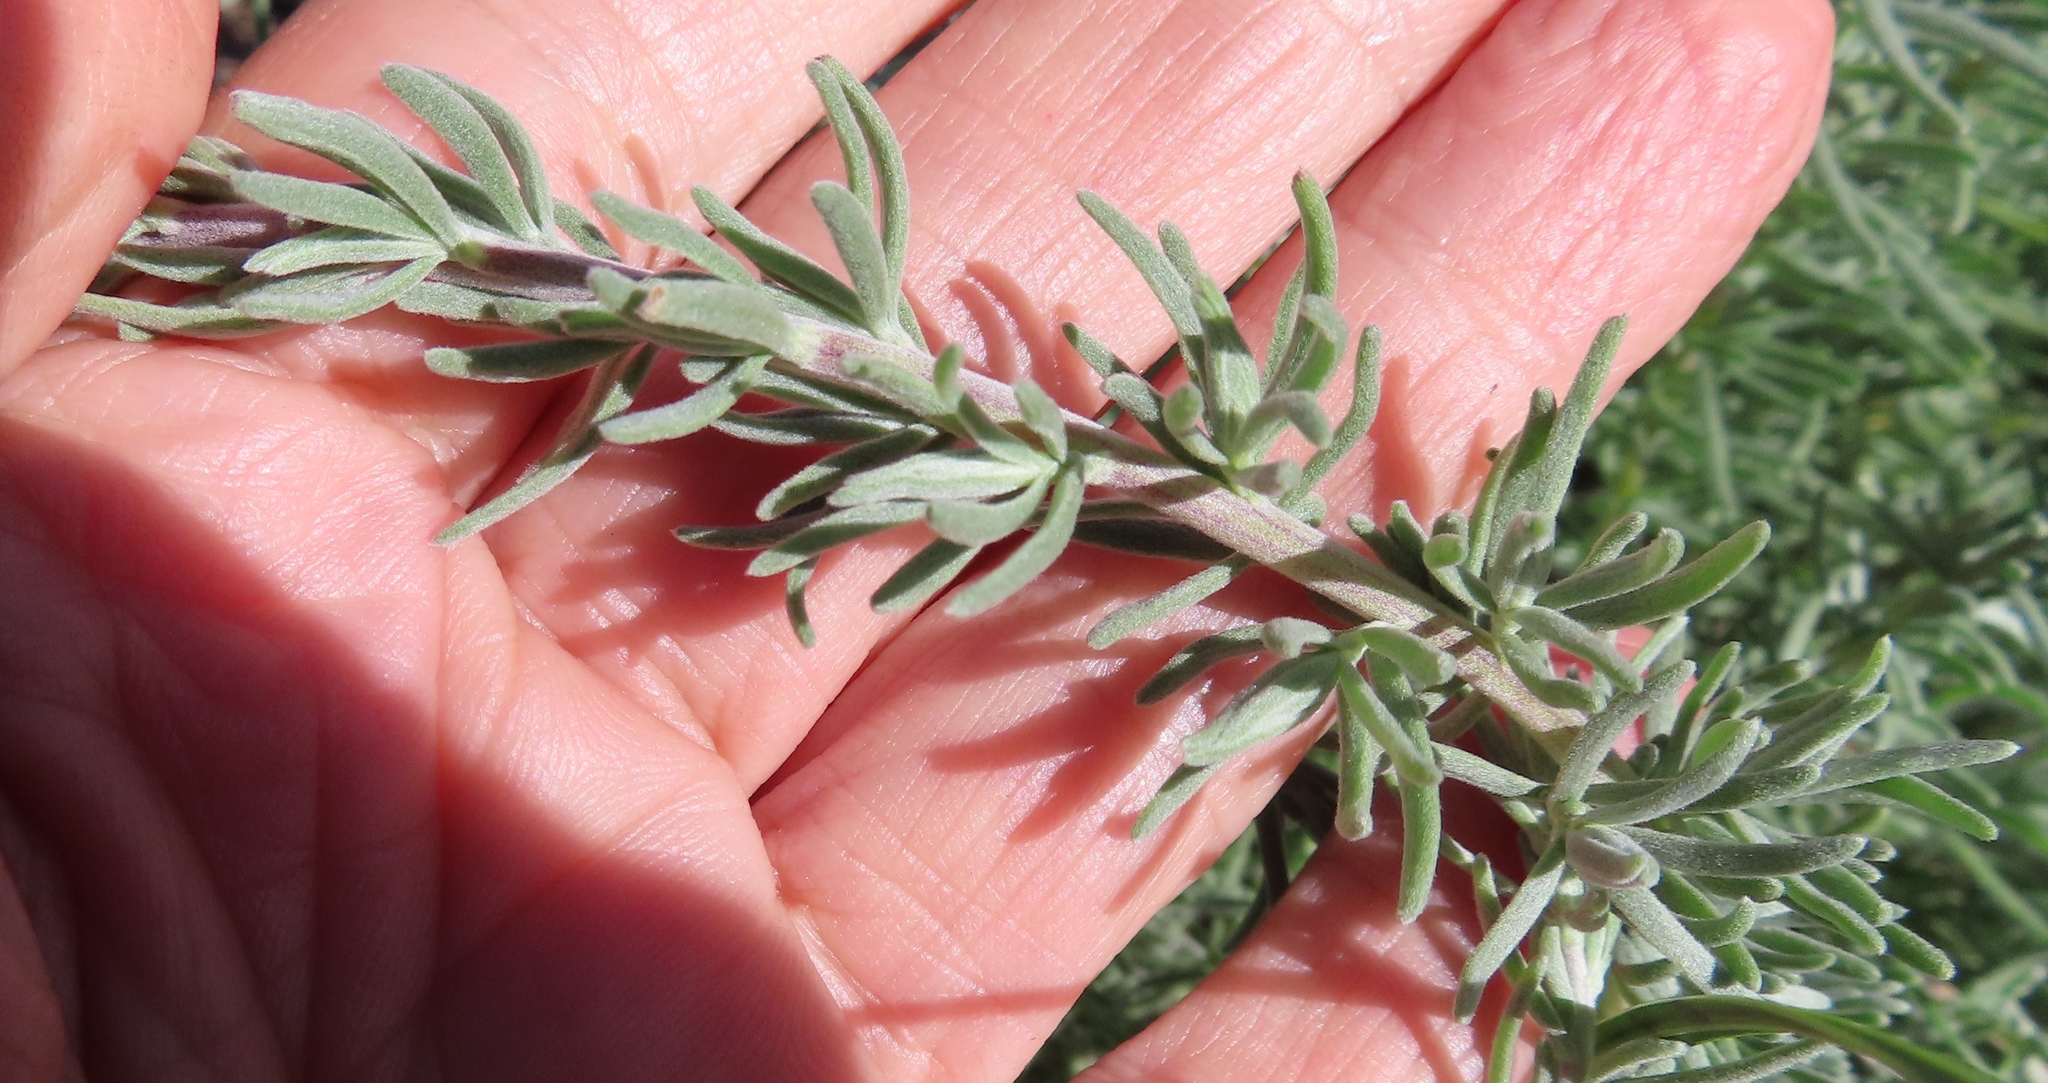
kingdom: Plantae
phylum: Tracheophyta
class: Magnoliopsida
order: Asterales
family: Asteraceae
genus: Eriocephalus
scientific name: Eriocephalus africanus
